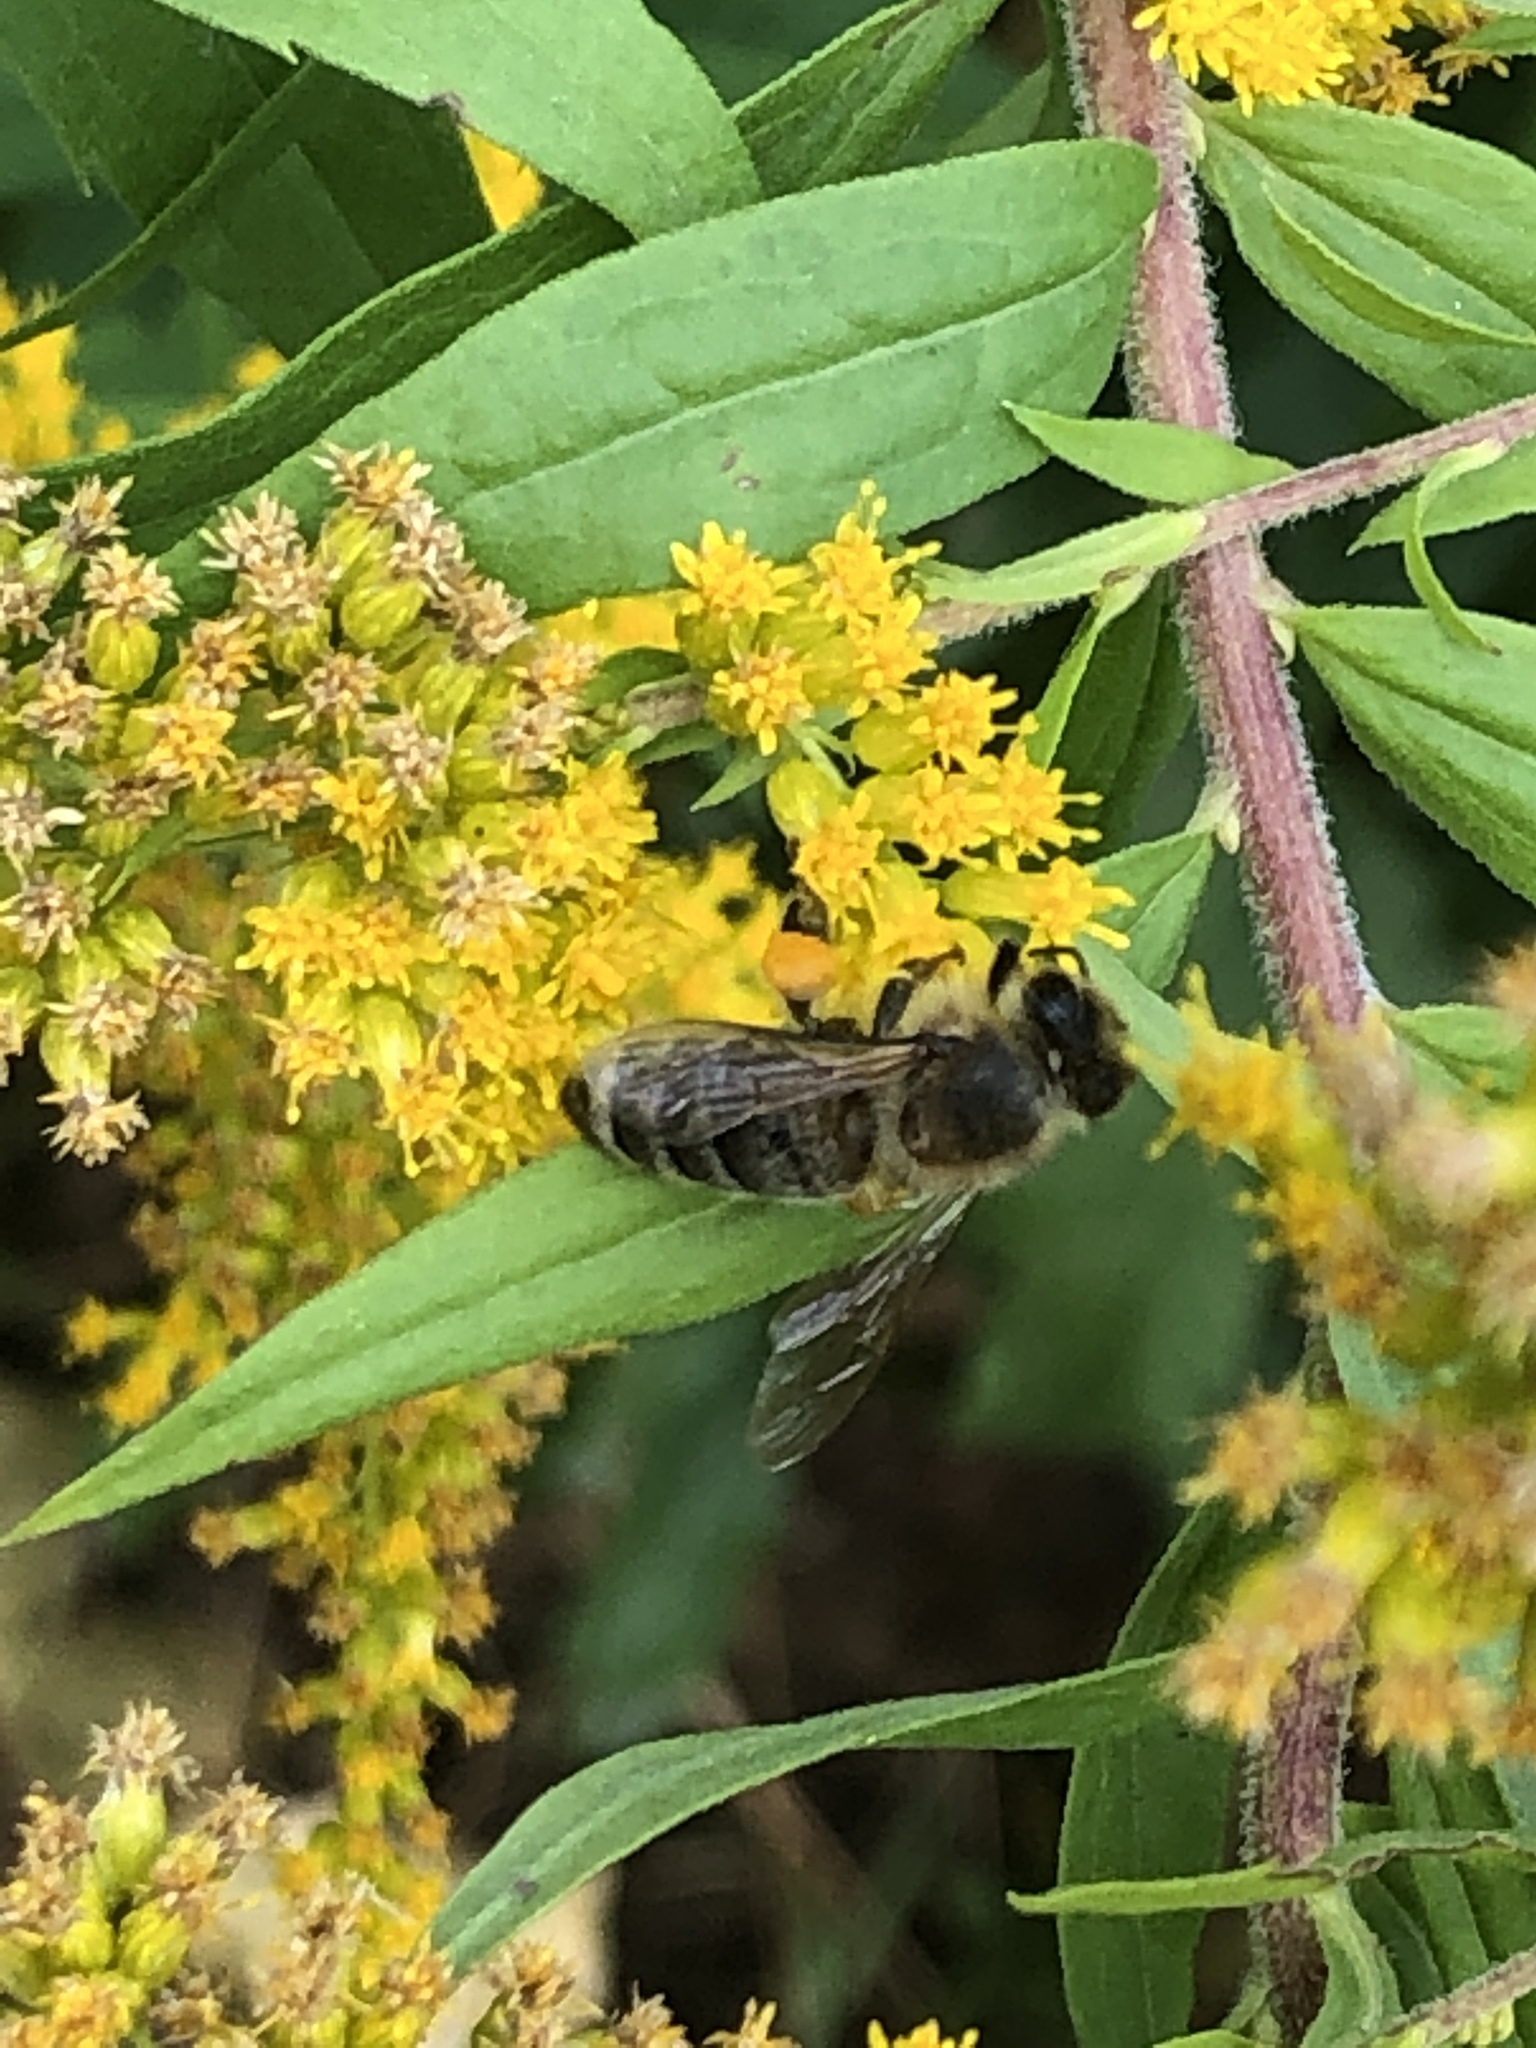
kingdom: Animalia
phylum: Arthropoda
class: Insecta
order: Hymenoptera
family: Apidae
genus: Apis
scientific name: Apis mellifera
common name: Honey bee
